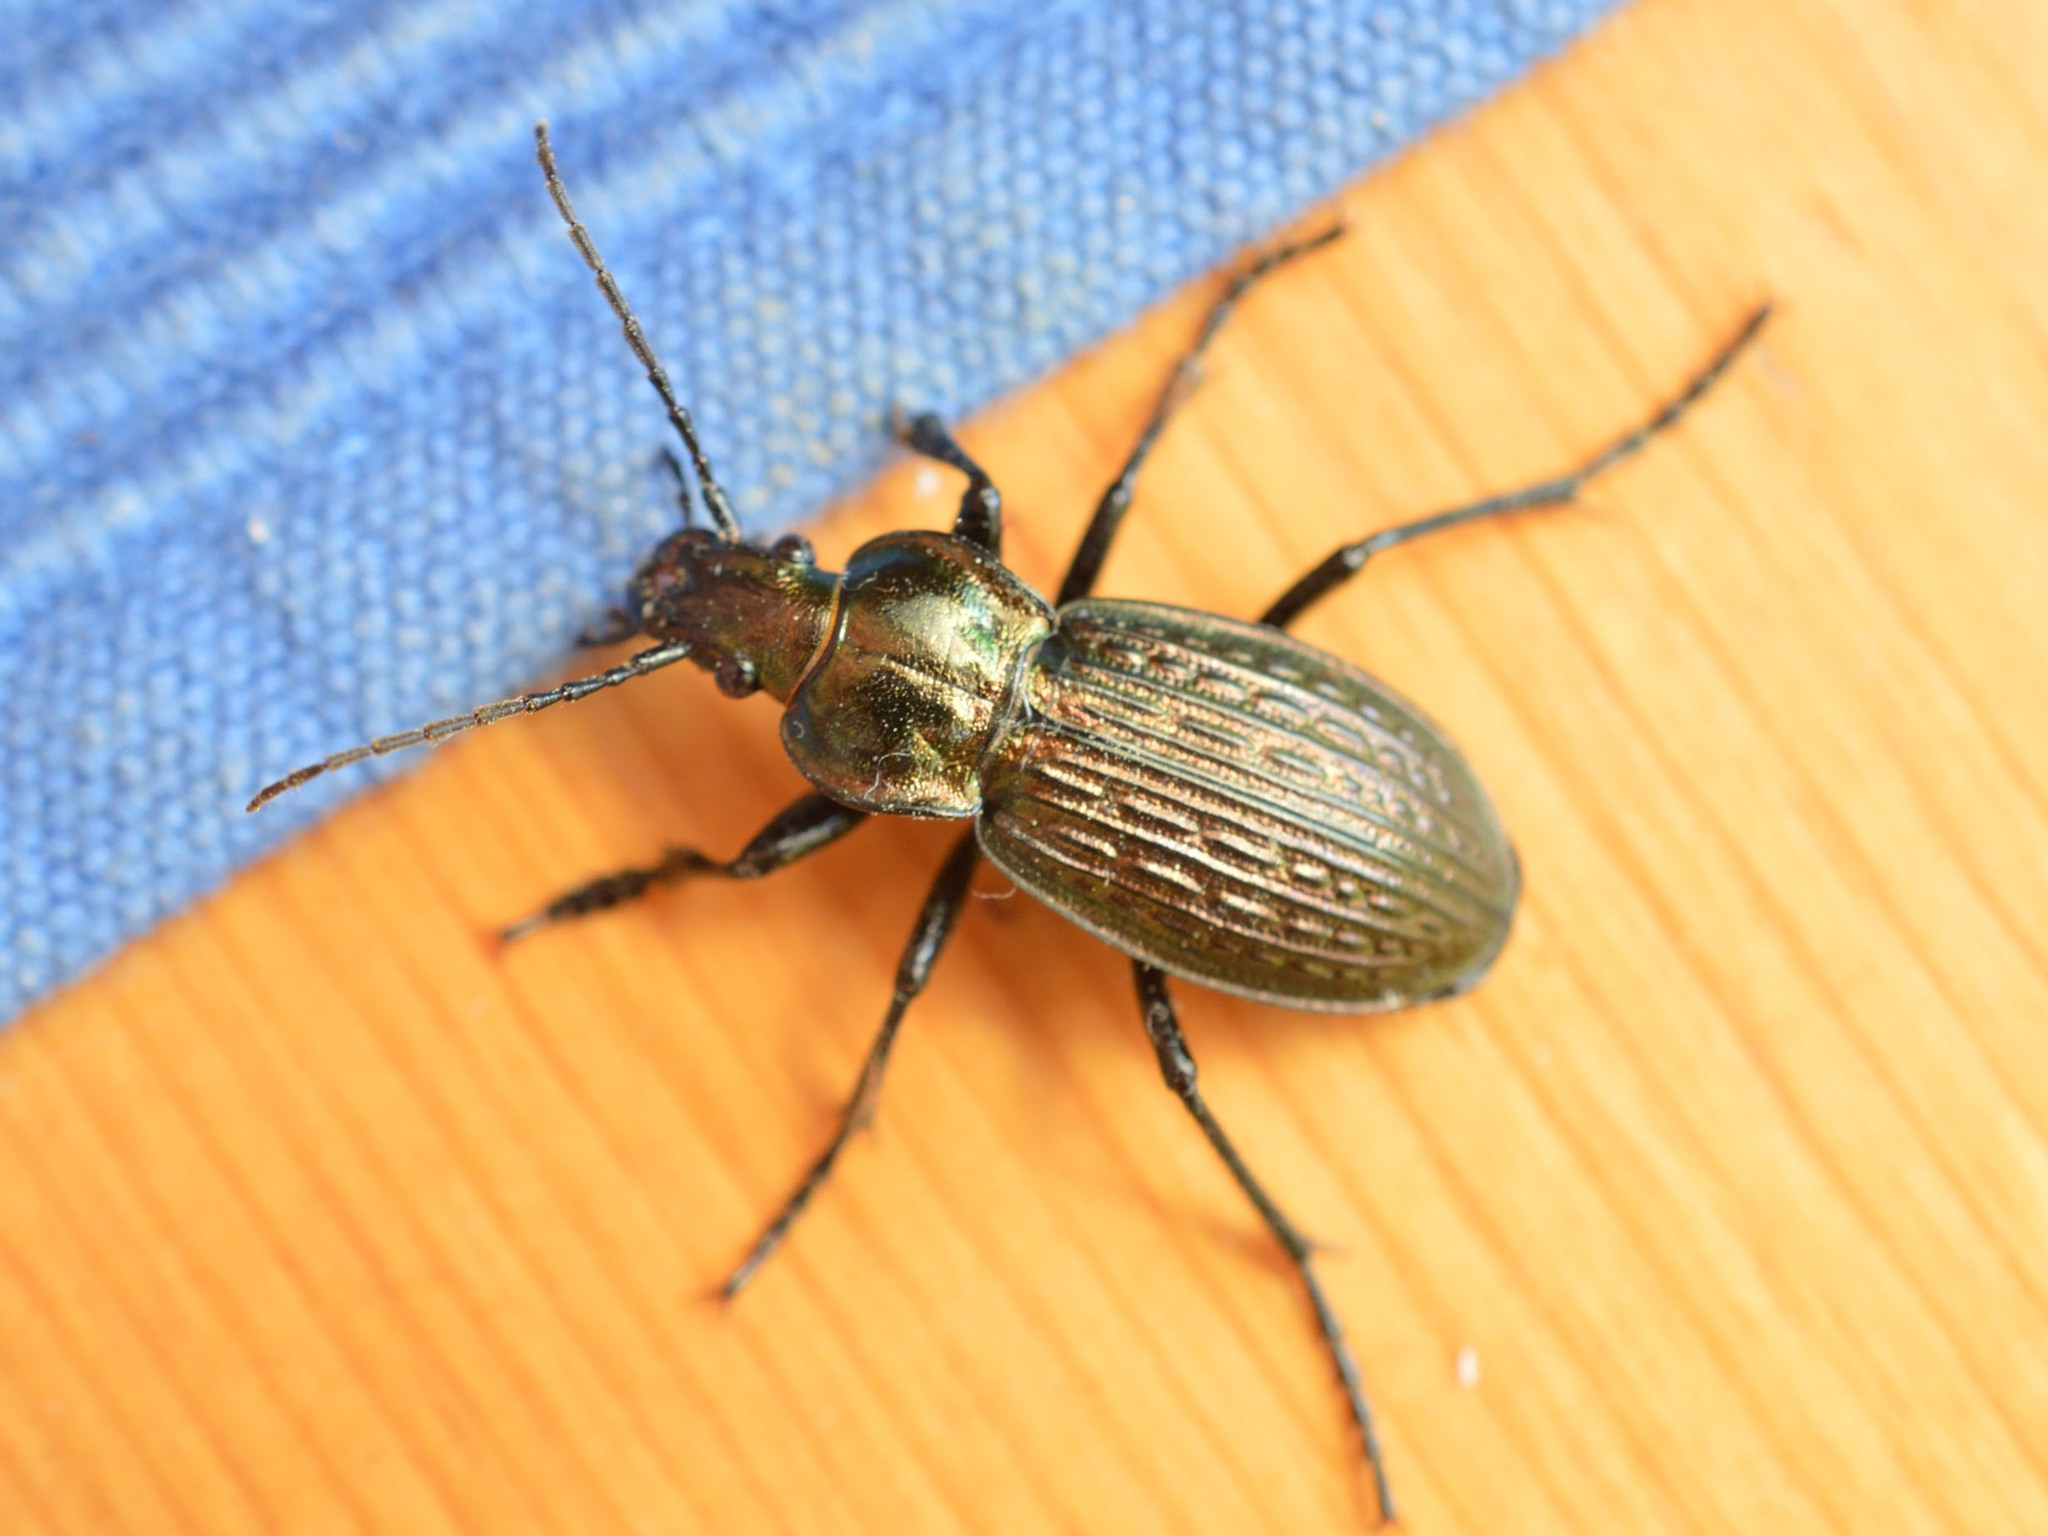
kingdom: Animalia
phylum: Arthropoda
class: Insecta
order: Coleoptera
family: Carabidae
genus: Carabus
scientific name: Carabus ulrichii
